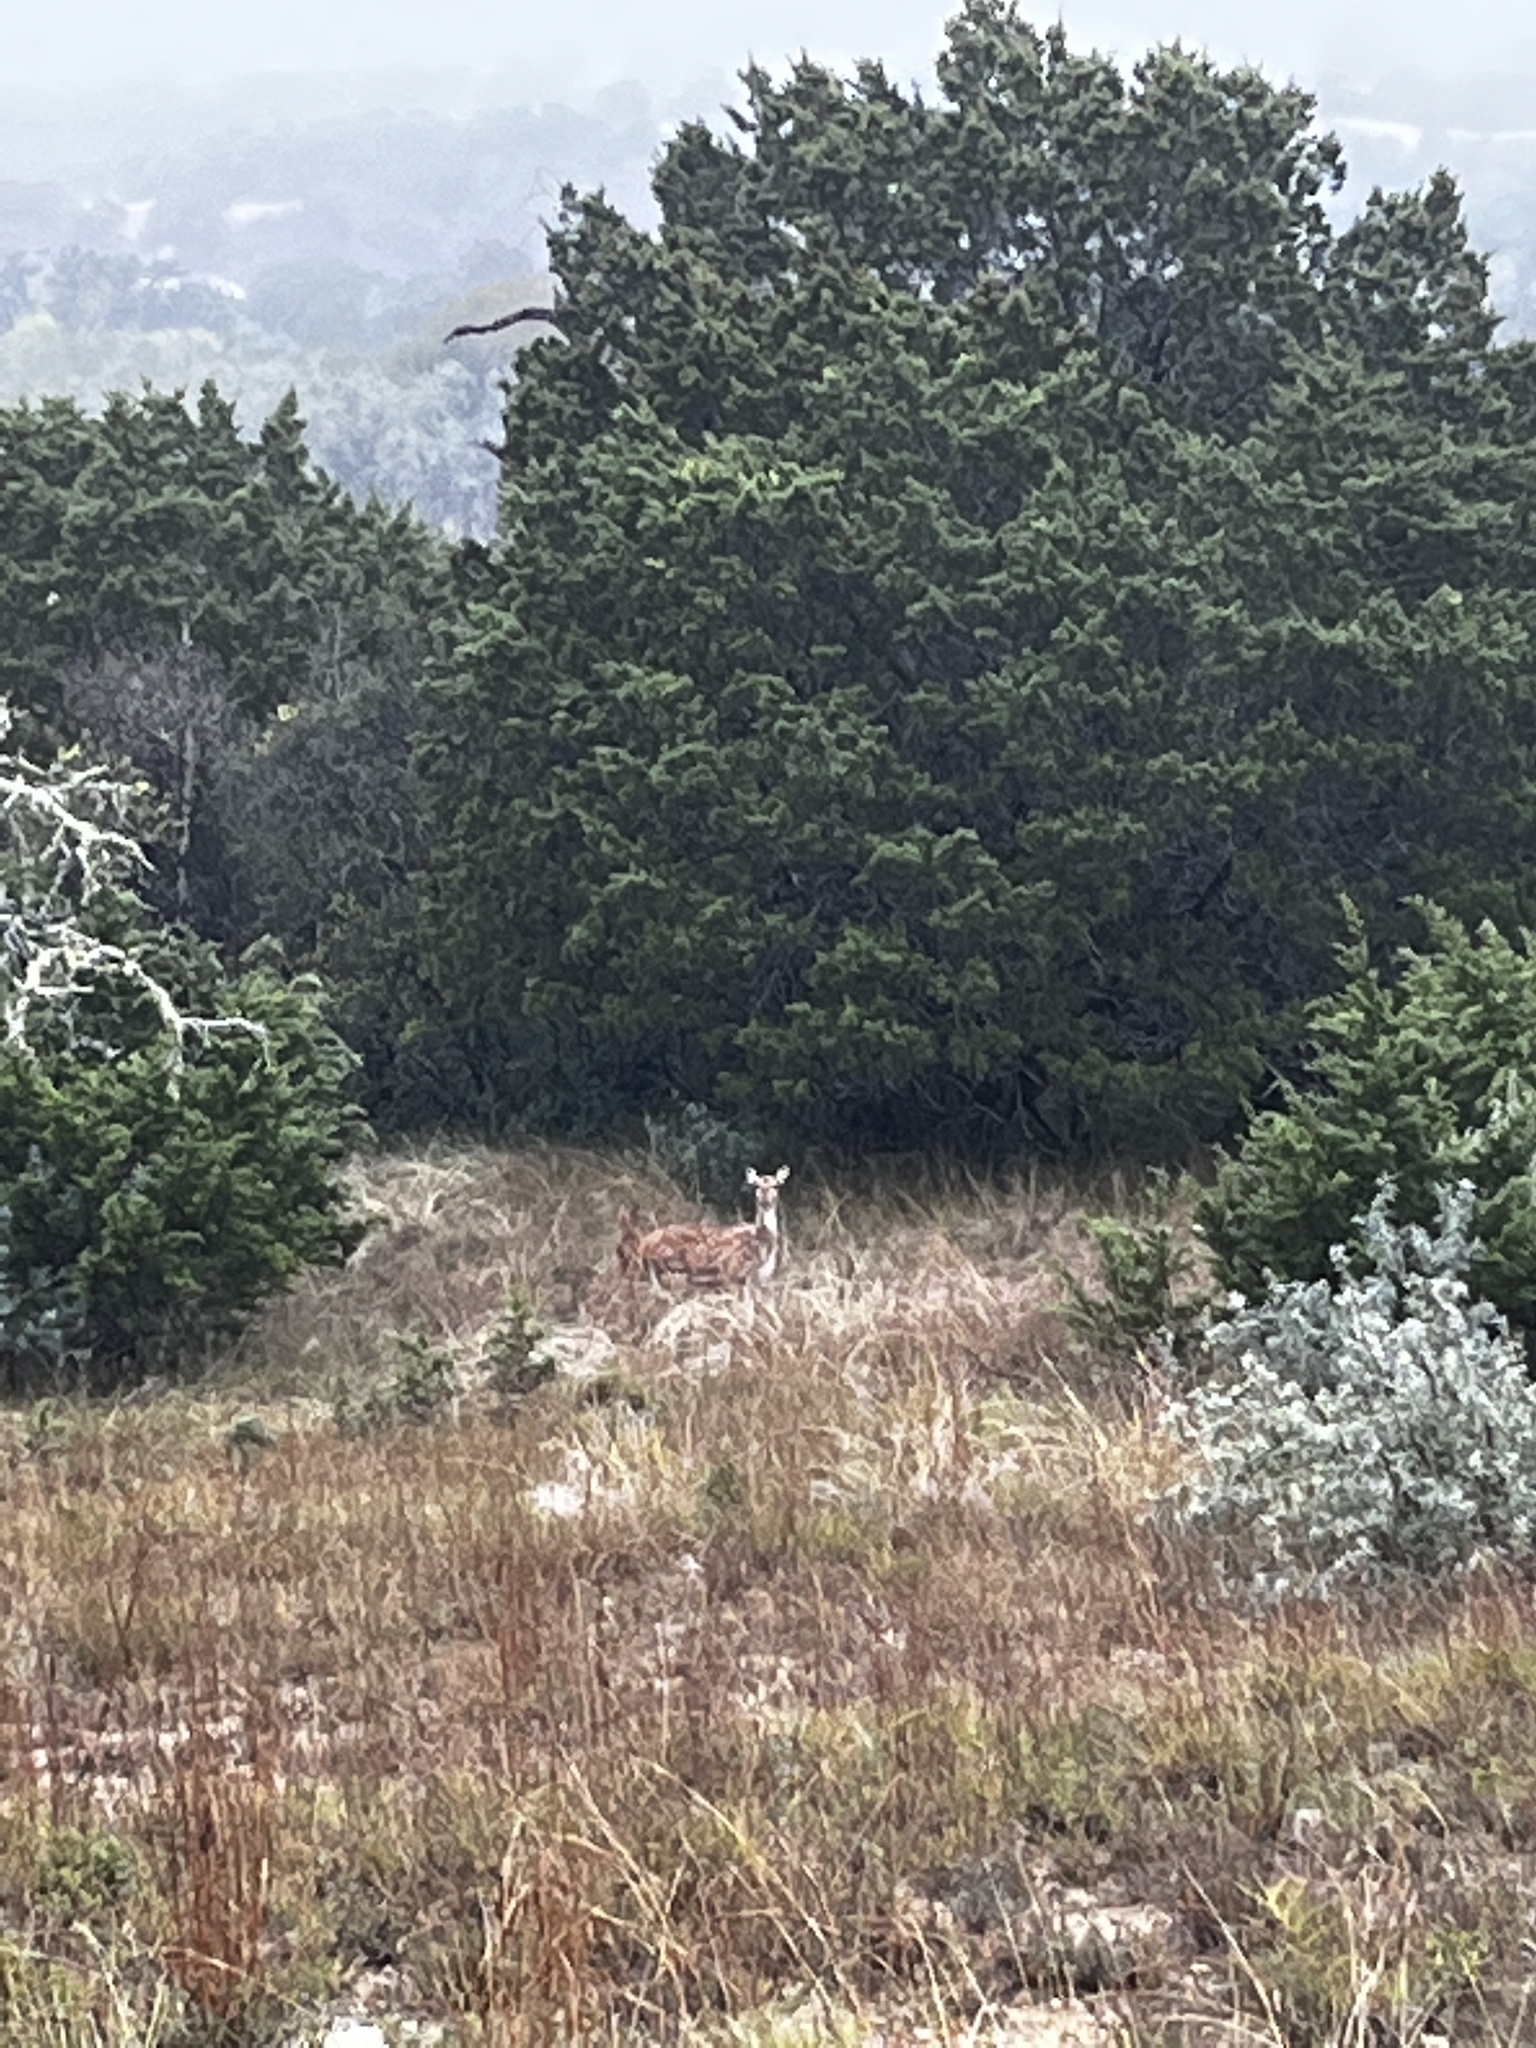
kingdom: Animalia
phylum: Chordata
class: Mammalia
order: Artiodactyla
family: Cervidae
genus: Axis
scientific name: Axis axis
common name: Chital
